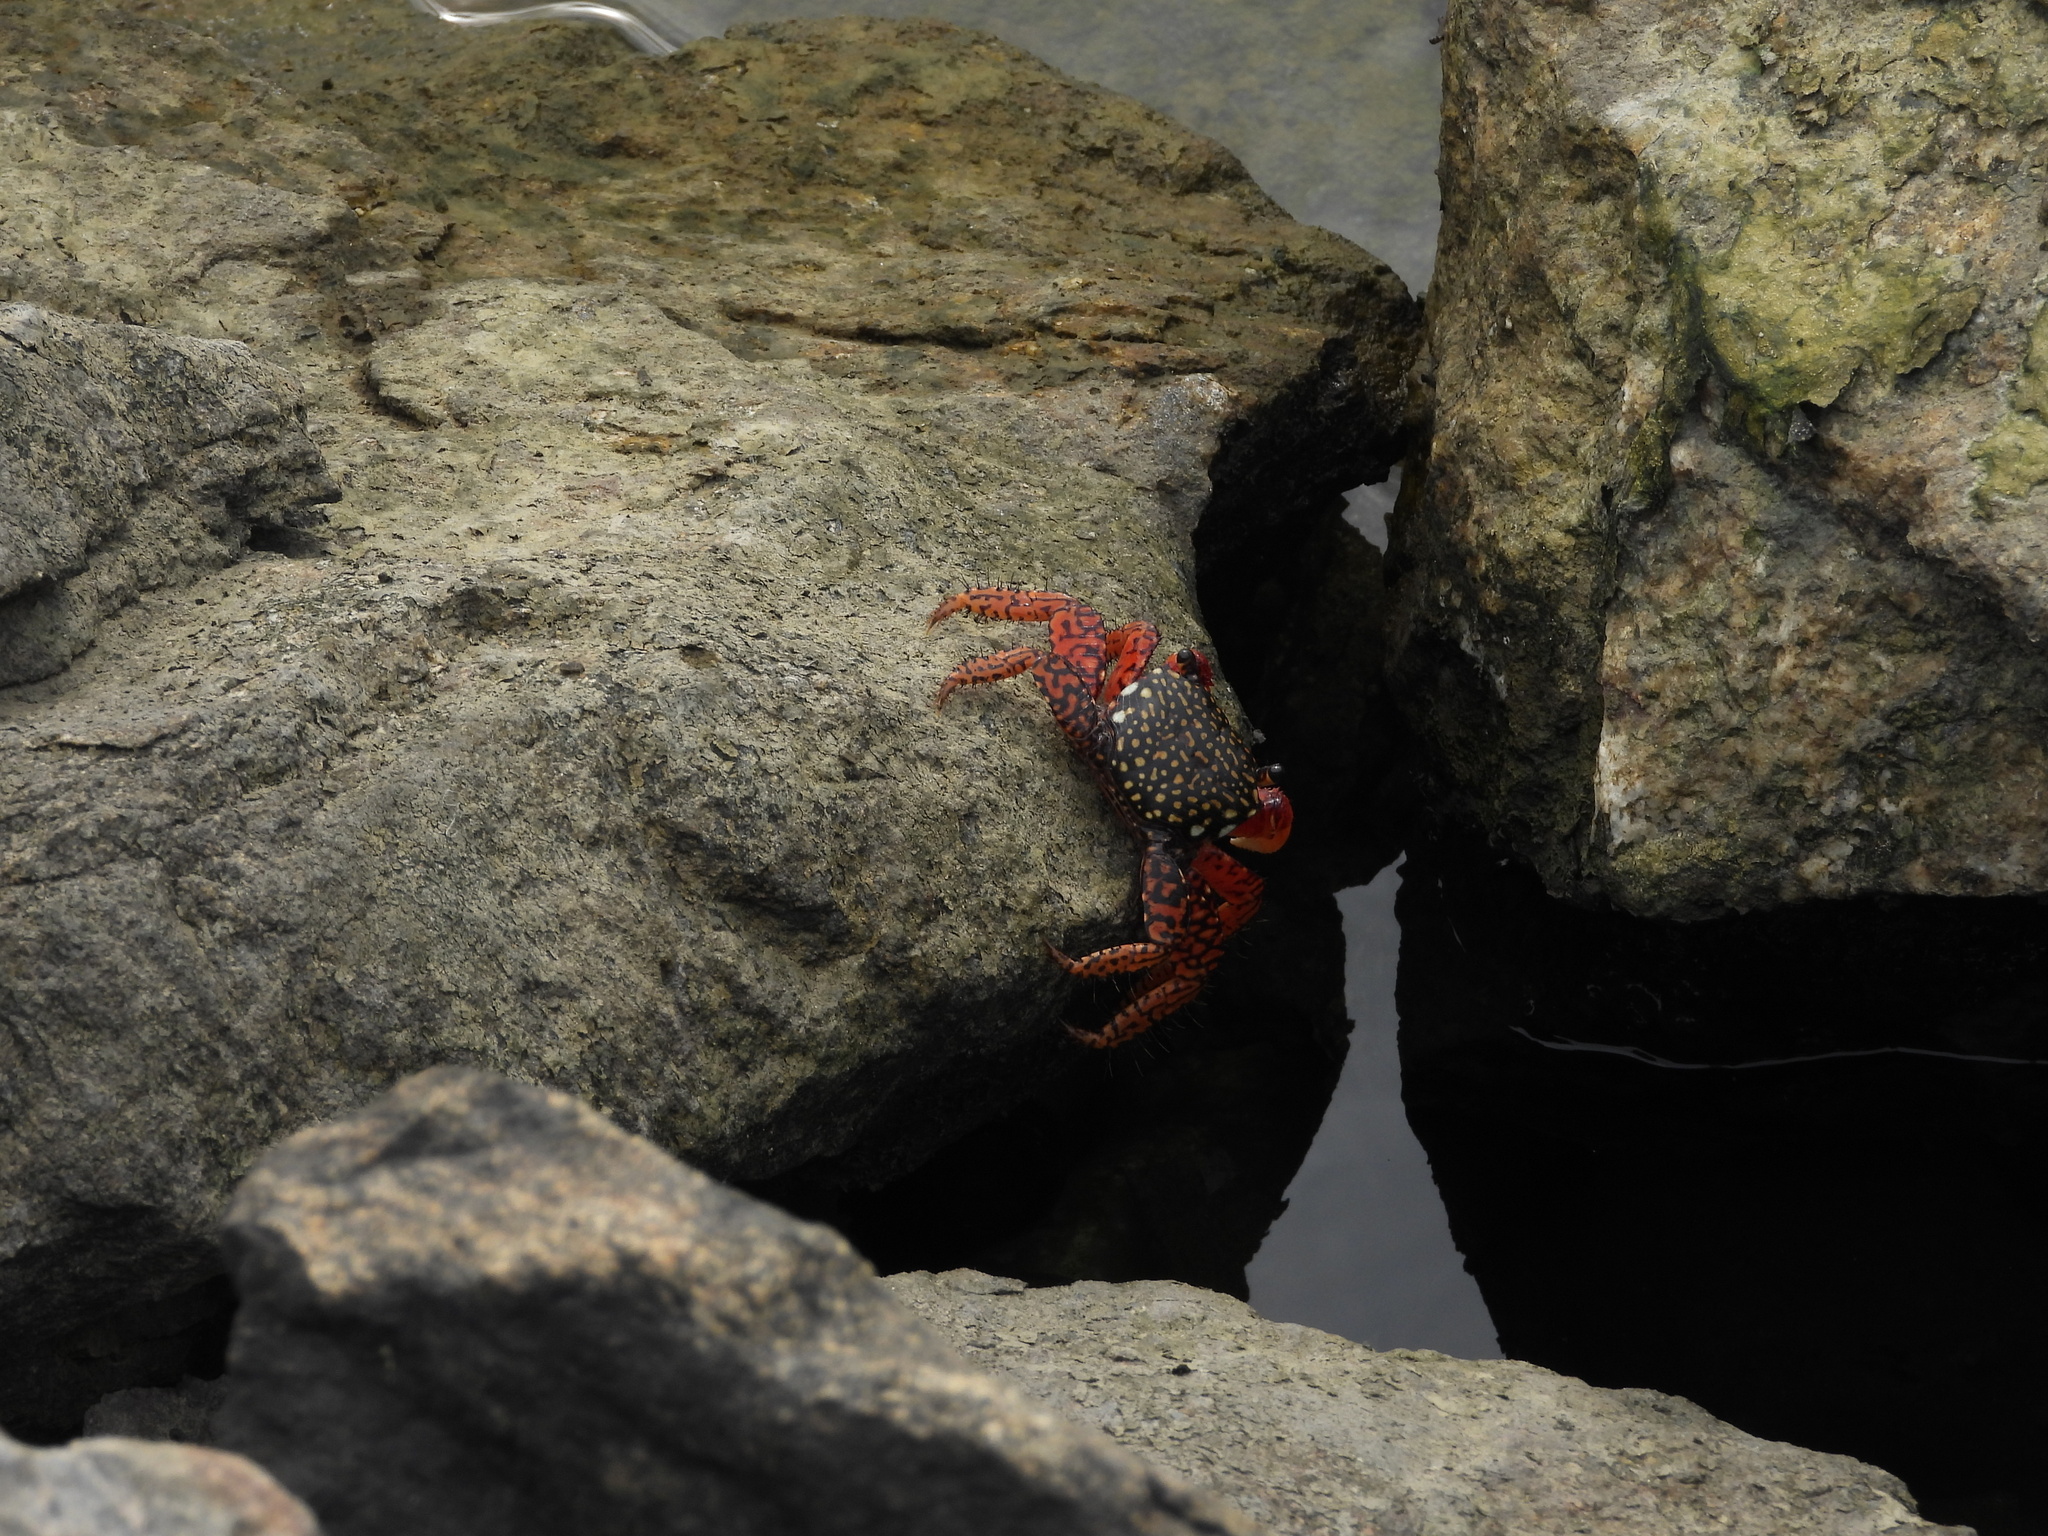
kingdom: Animalia
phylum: Arthropoda
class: Malacostraca
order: Decapoda
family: Grapsidae
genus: Goniopsis
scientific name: Goniopsis pulchra
